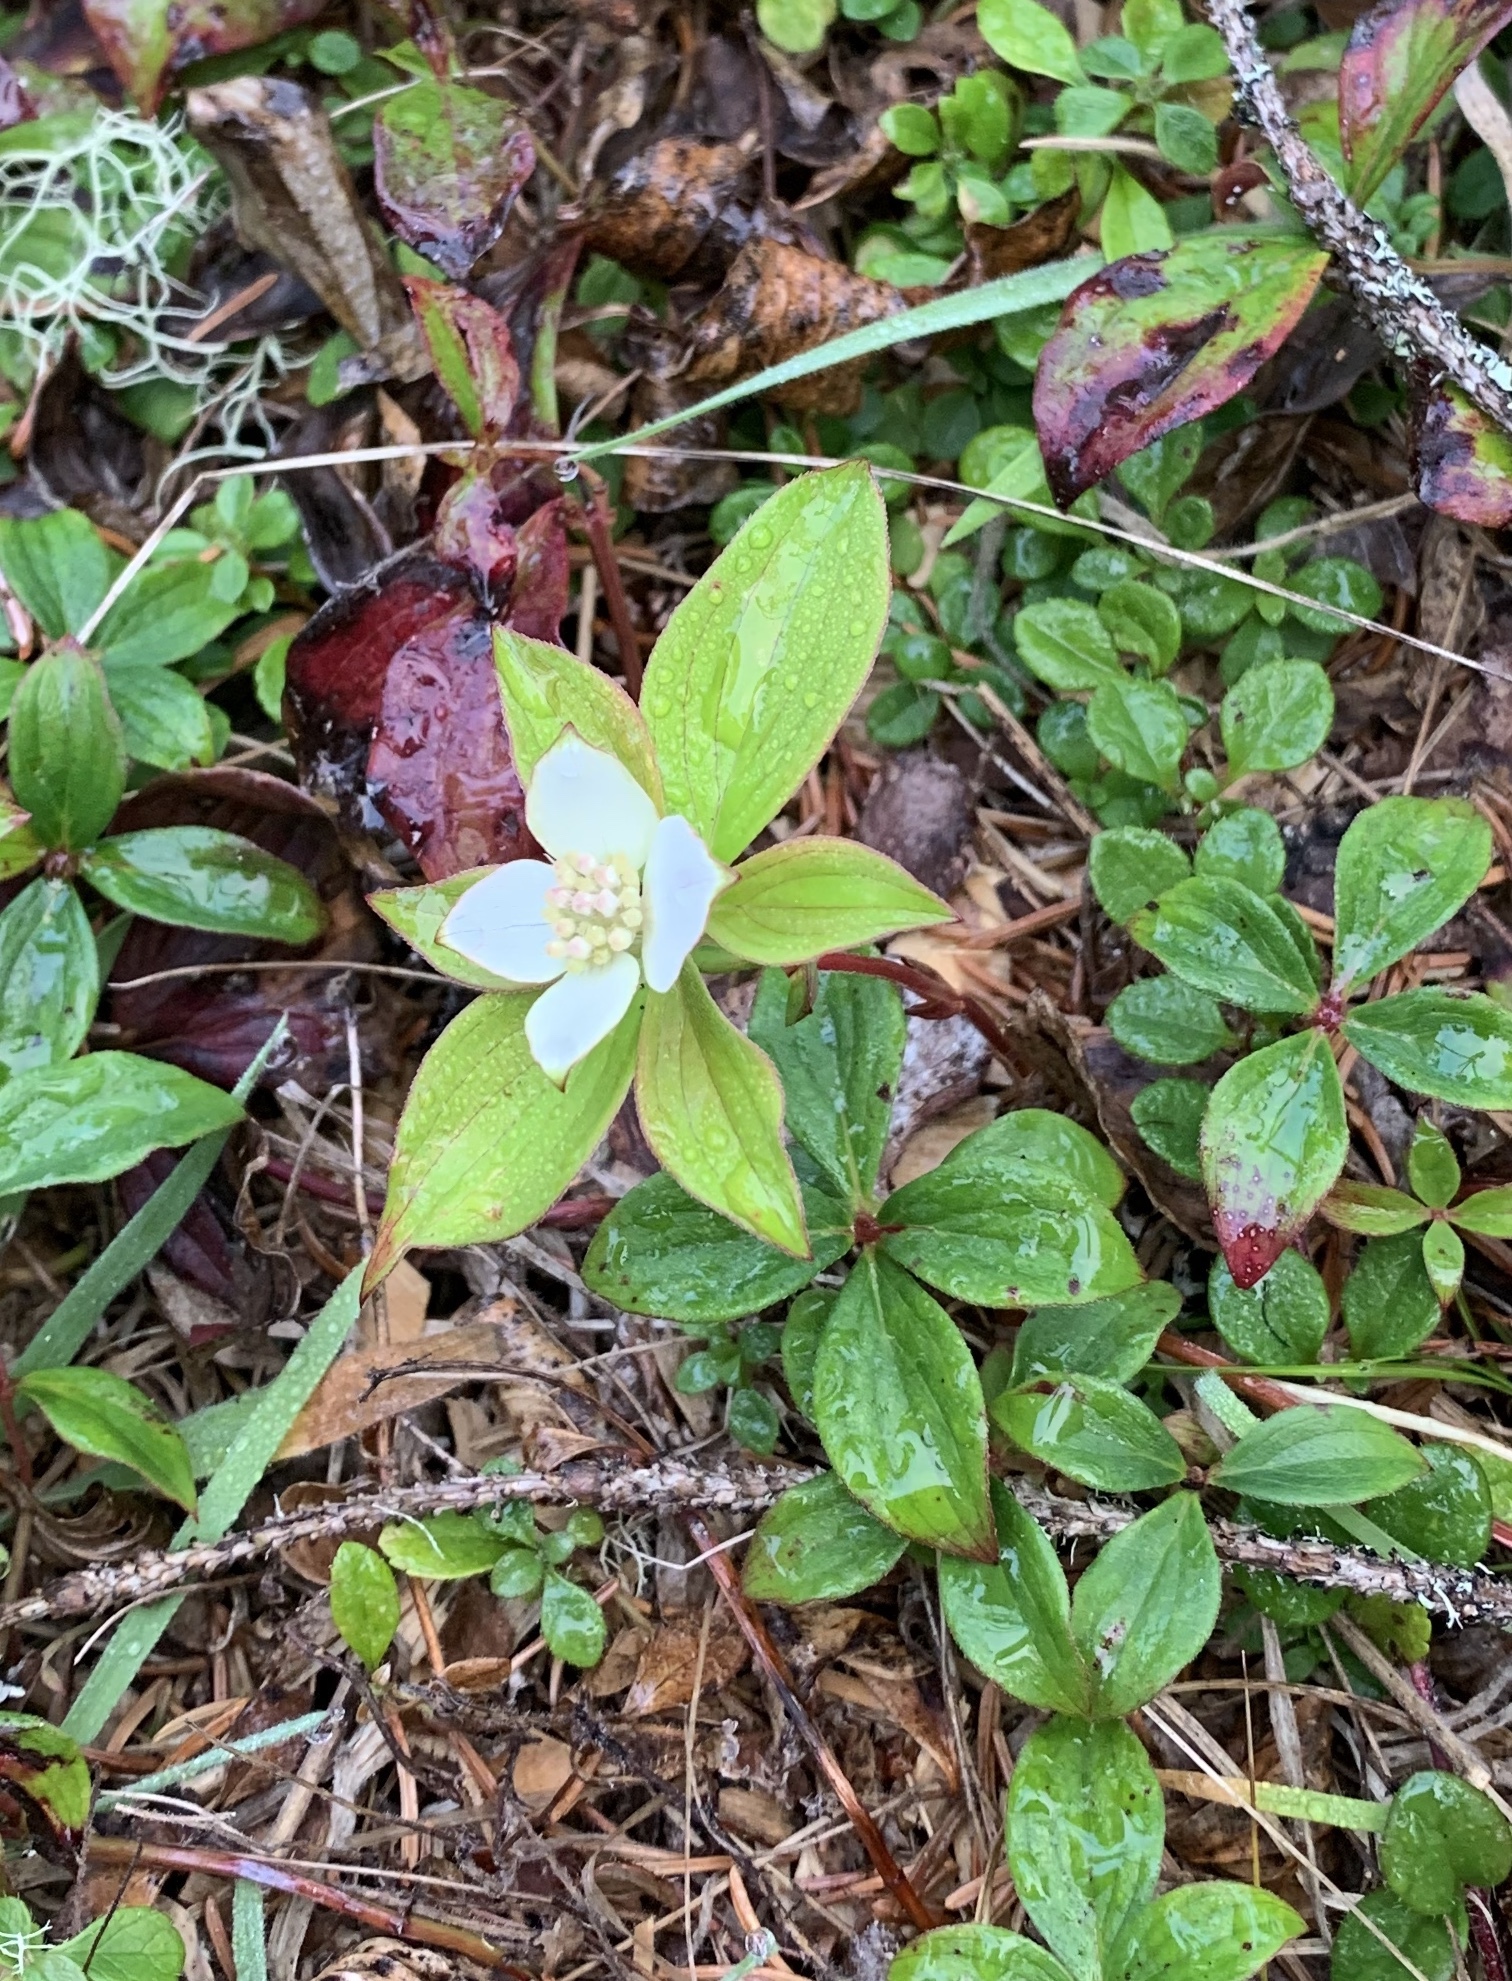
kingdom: Plantae
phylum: Tracheophyta
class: Magnoliopsida
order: Cornales
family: Cornaceae
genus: Cornus
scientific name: Cornus canadensis
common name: Creeping dogwood
